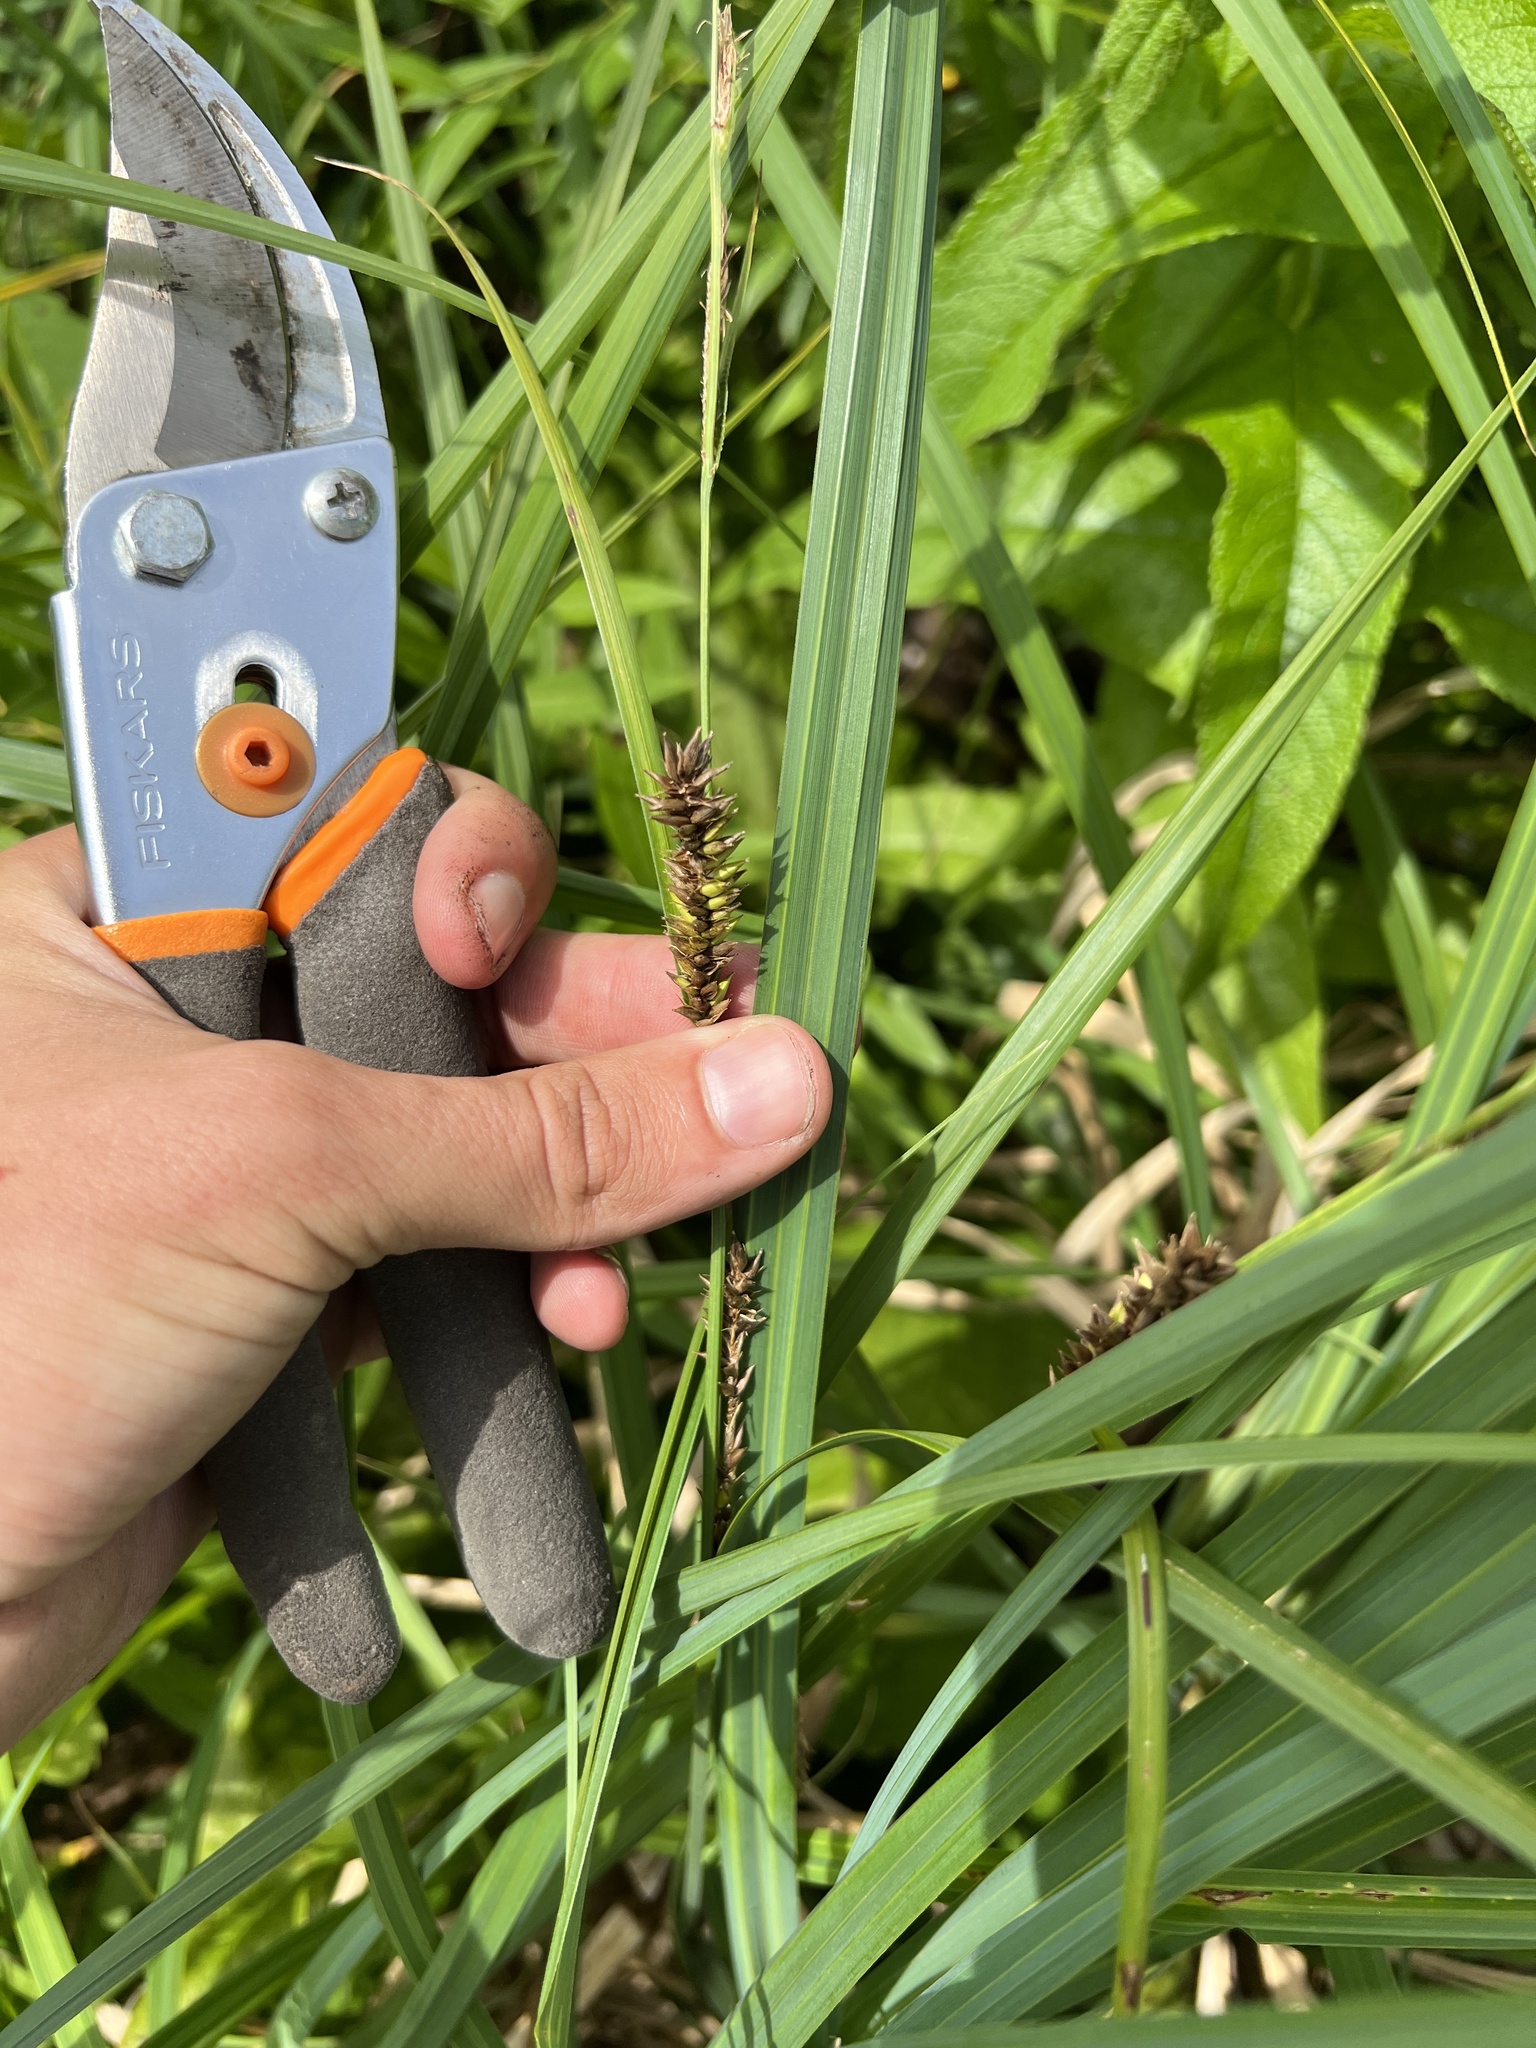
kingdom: Plantae
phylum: Tracheophyta
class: Liliopsida
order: Poales
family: Cyperaceae
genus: Carex
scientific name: Carex lacustris
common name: Common lake sedge
